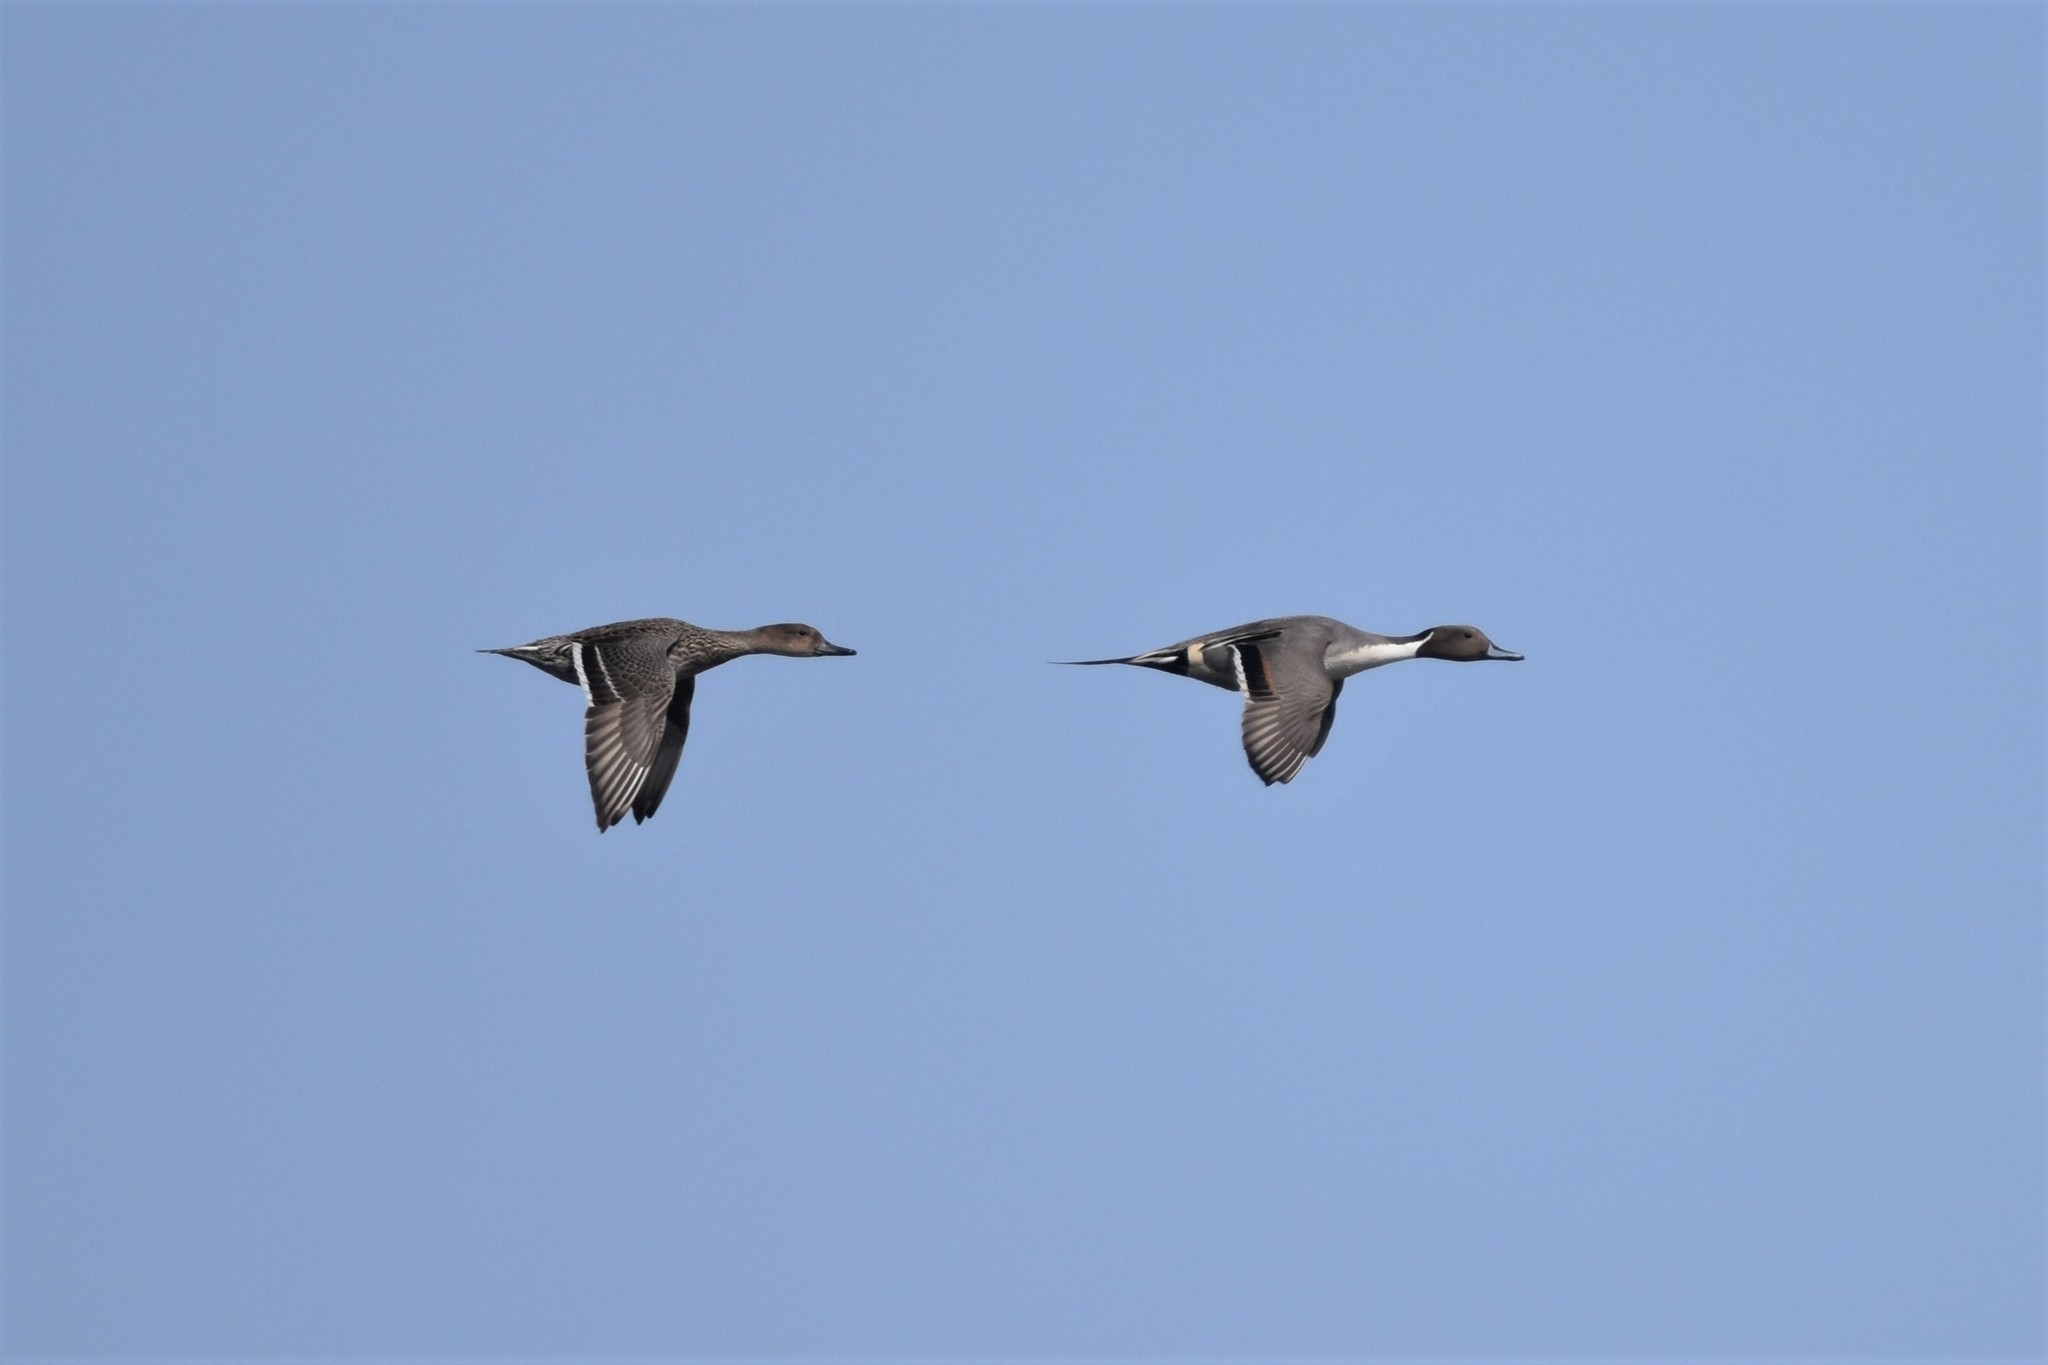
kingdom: Animalia
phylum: Chordata
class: Aves
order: Anseriformes
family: Anatidae
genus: Anas
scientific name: Anas acuta
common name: Northern pintail
